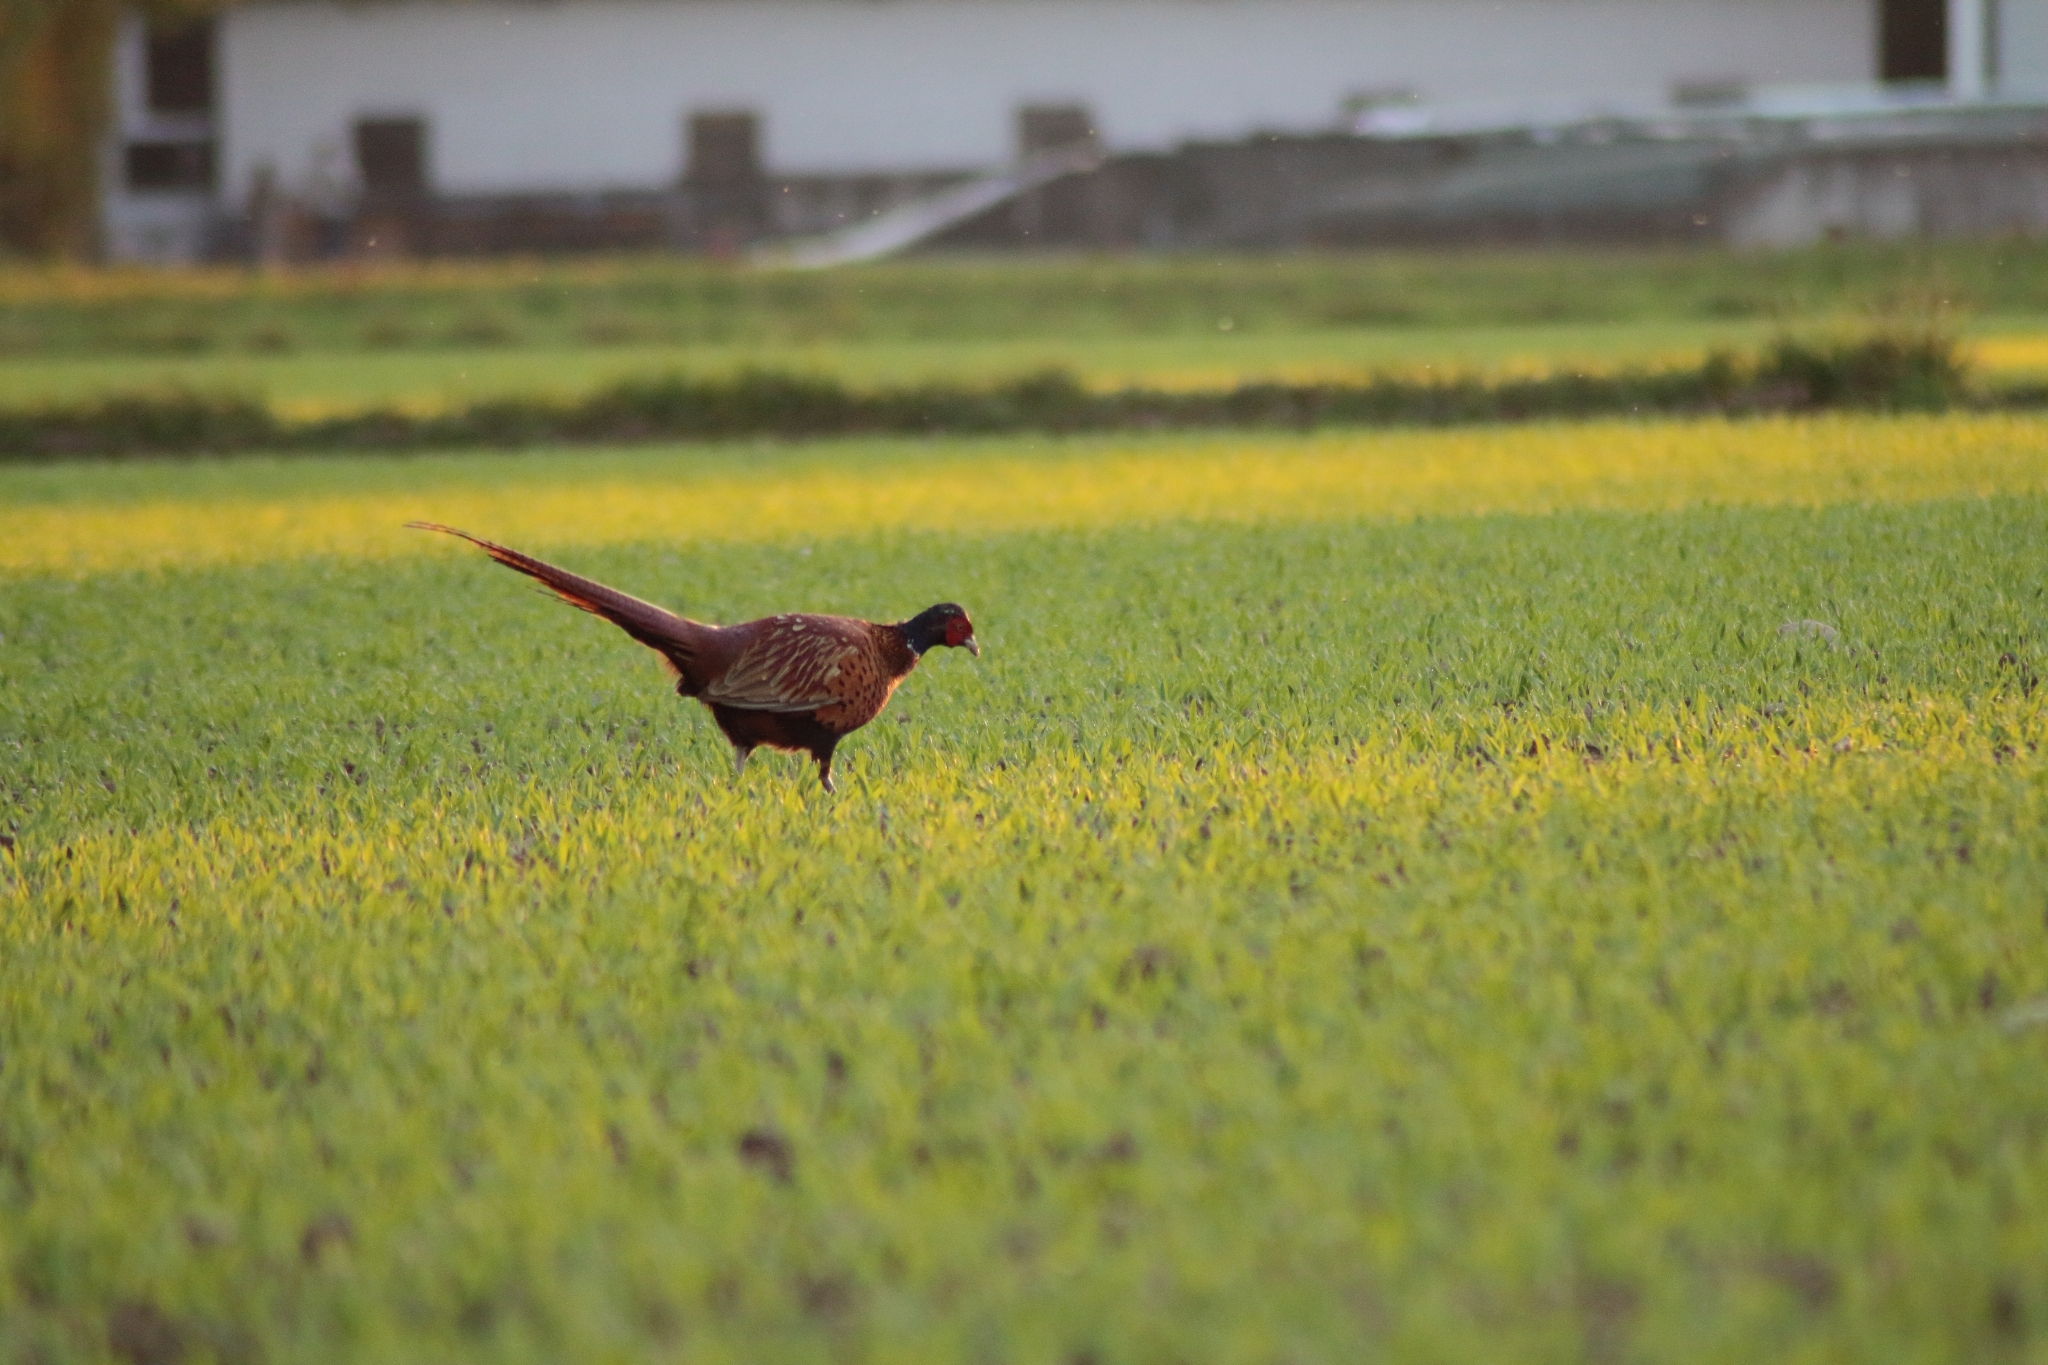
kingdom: Animalia
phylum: Chordata
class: Aves
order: Galliformes
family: Phasianidae
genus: Phasianus
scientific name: Phasianus colchicus
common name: Common pheasant
